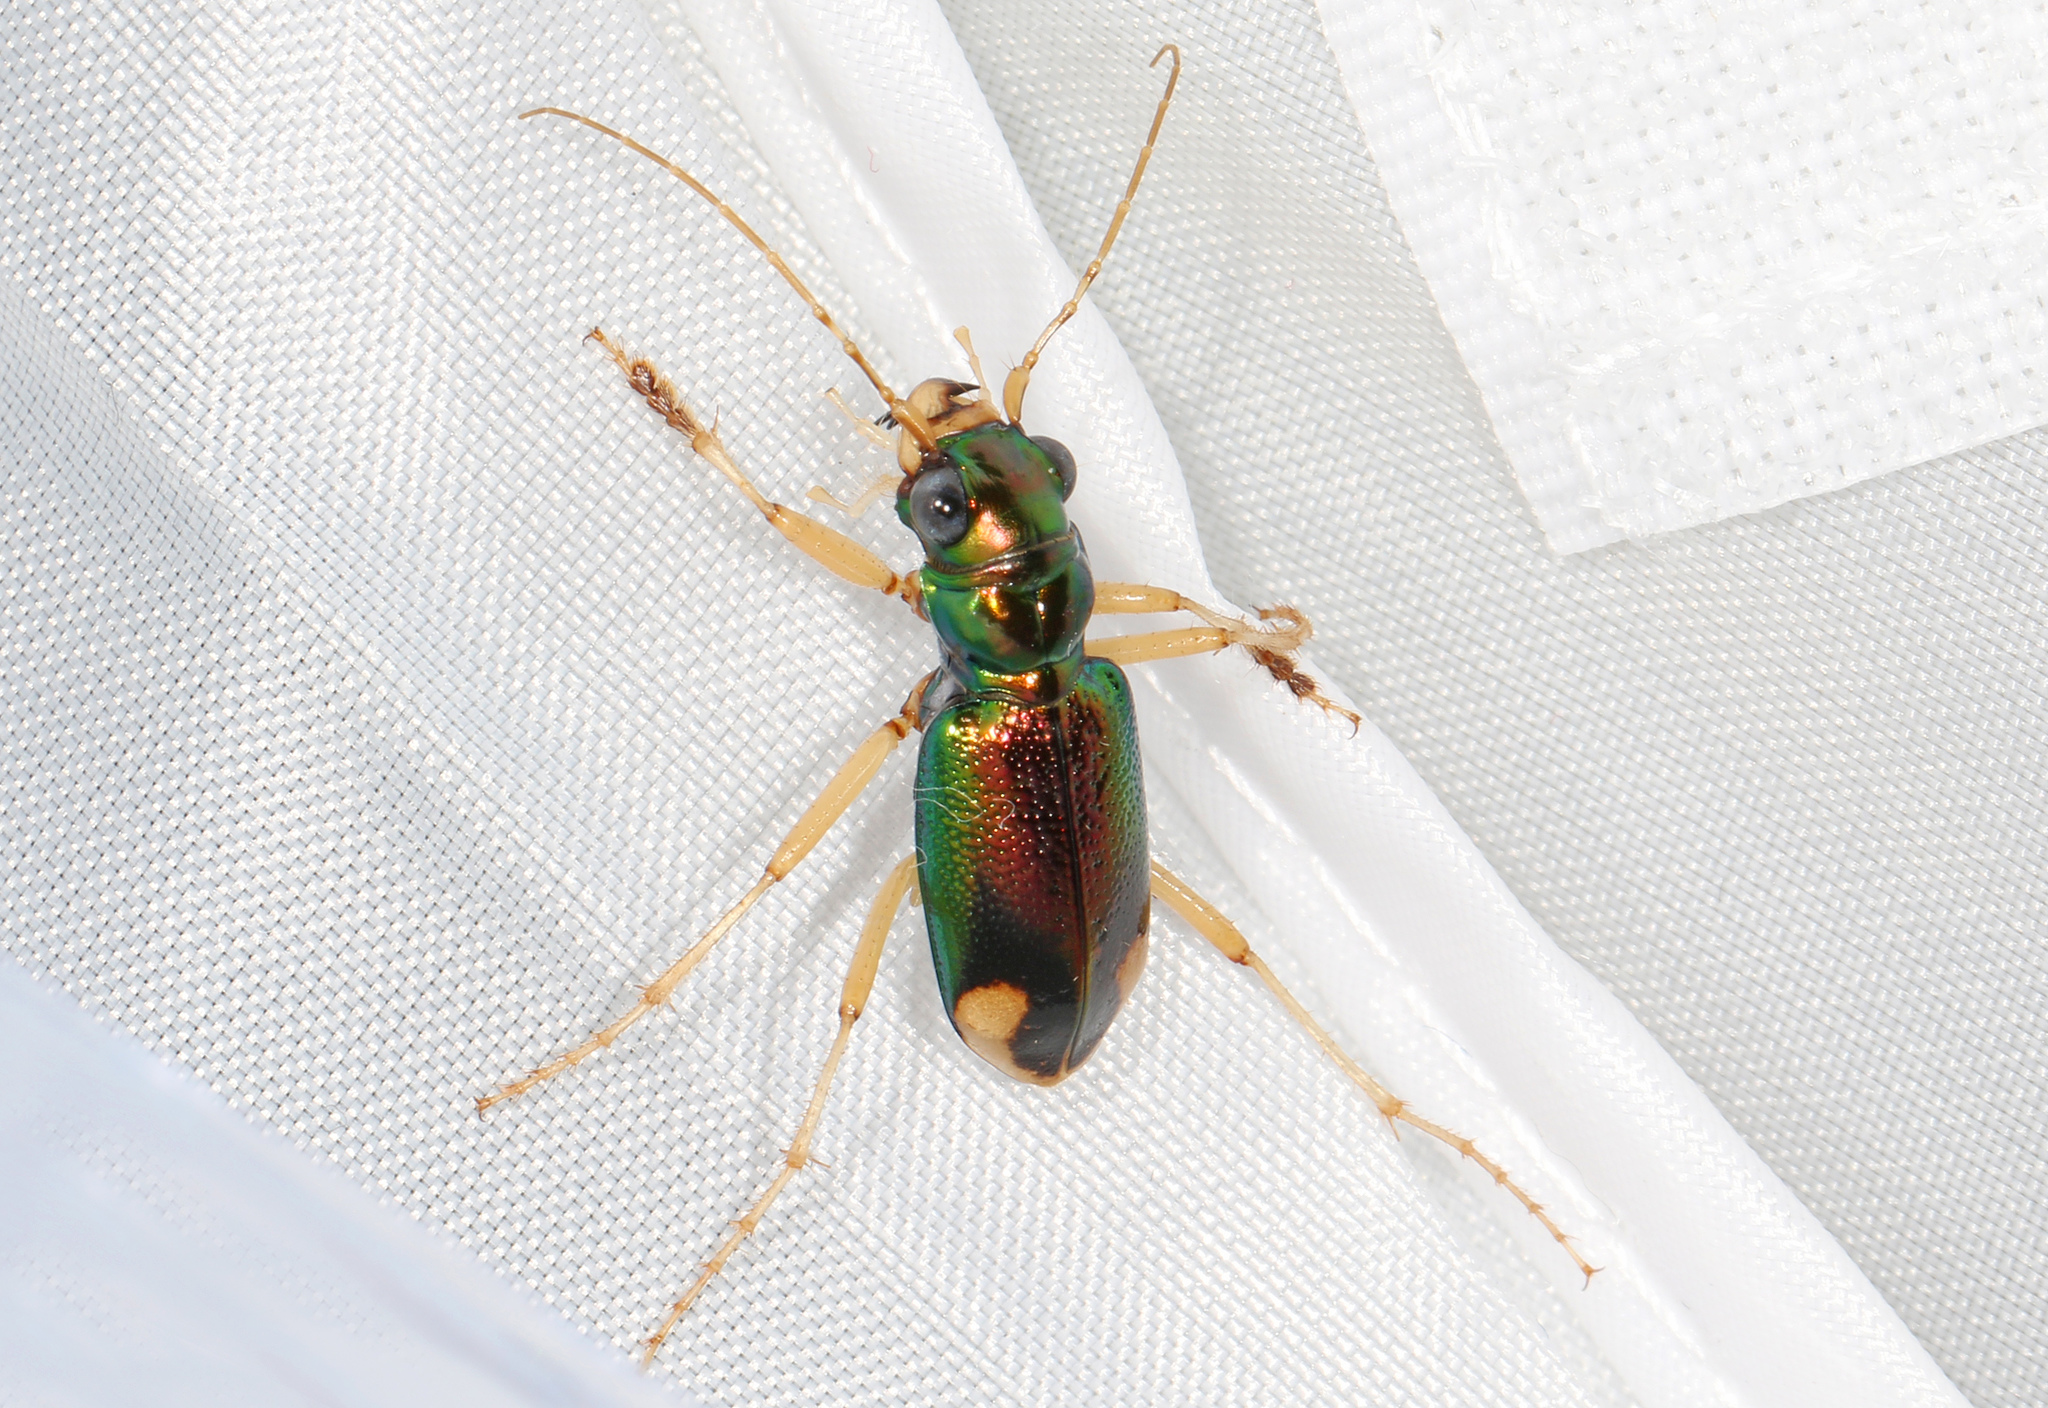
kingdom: Animalia
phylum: Arthropoda
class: Insecta
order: Coleoptera
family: Carabidae
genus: Tetracha
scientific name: Tetracha carolina
